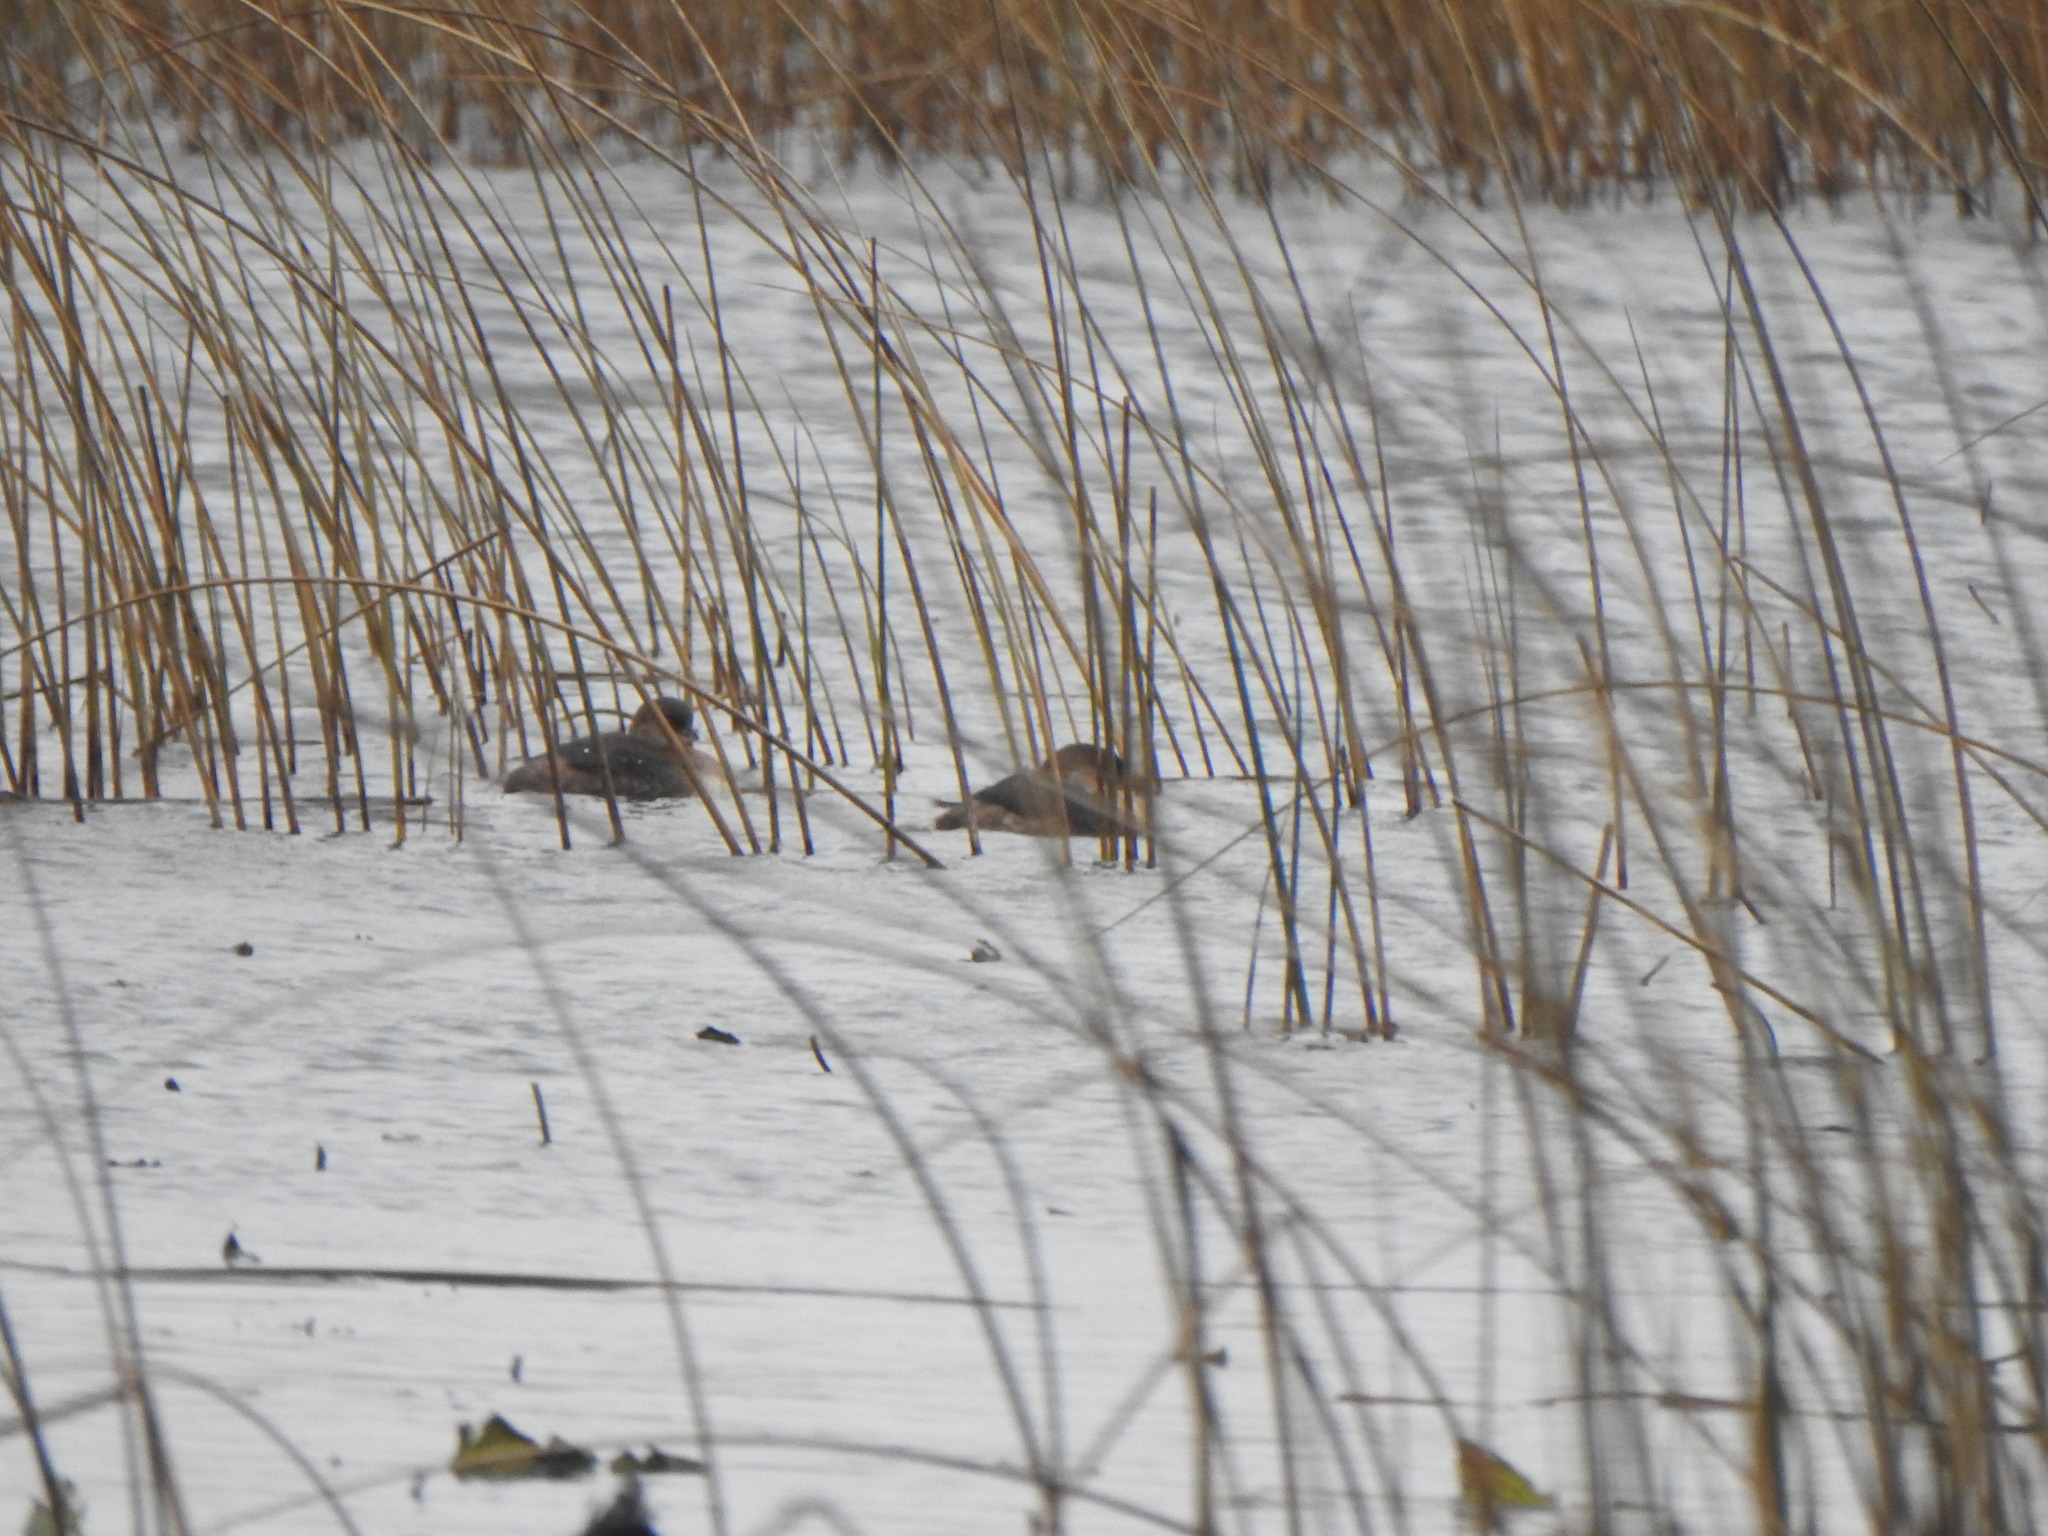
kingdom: Animalia
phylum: Chordata
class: Aves
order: Podicipediformes
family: Podicipedidae
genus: Podilymbus
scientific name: Podilymbus podiceps
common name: Pied-billed grebe
